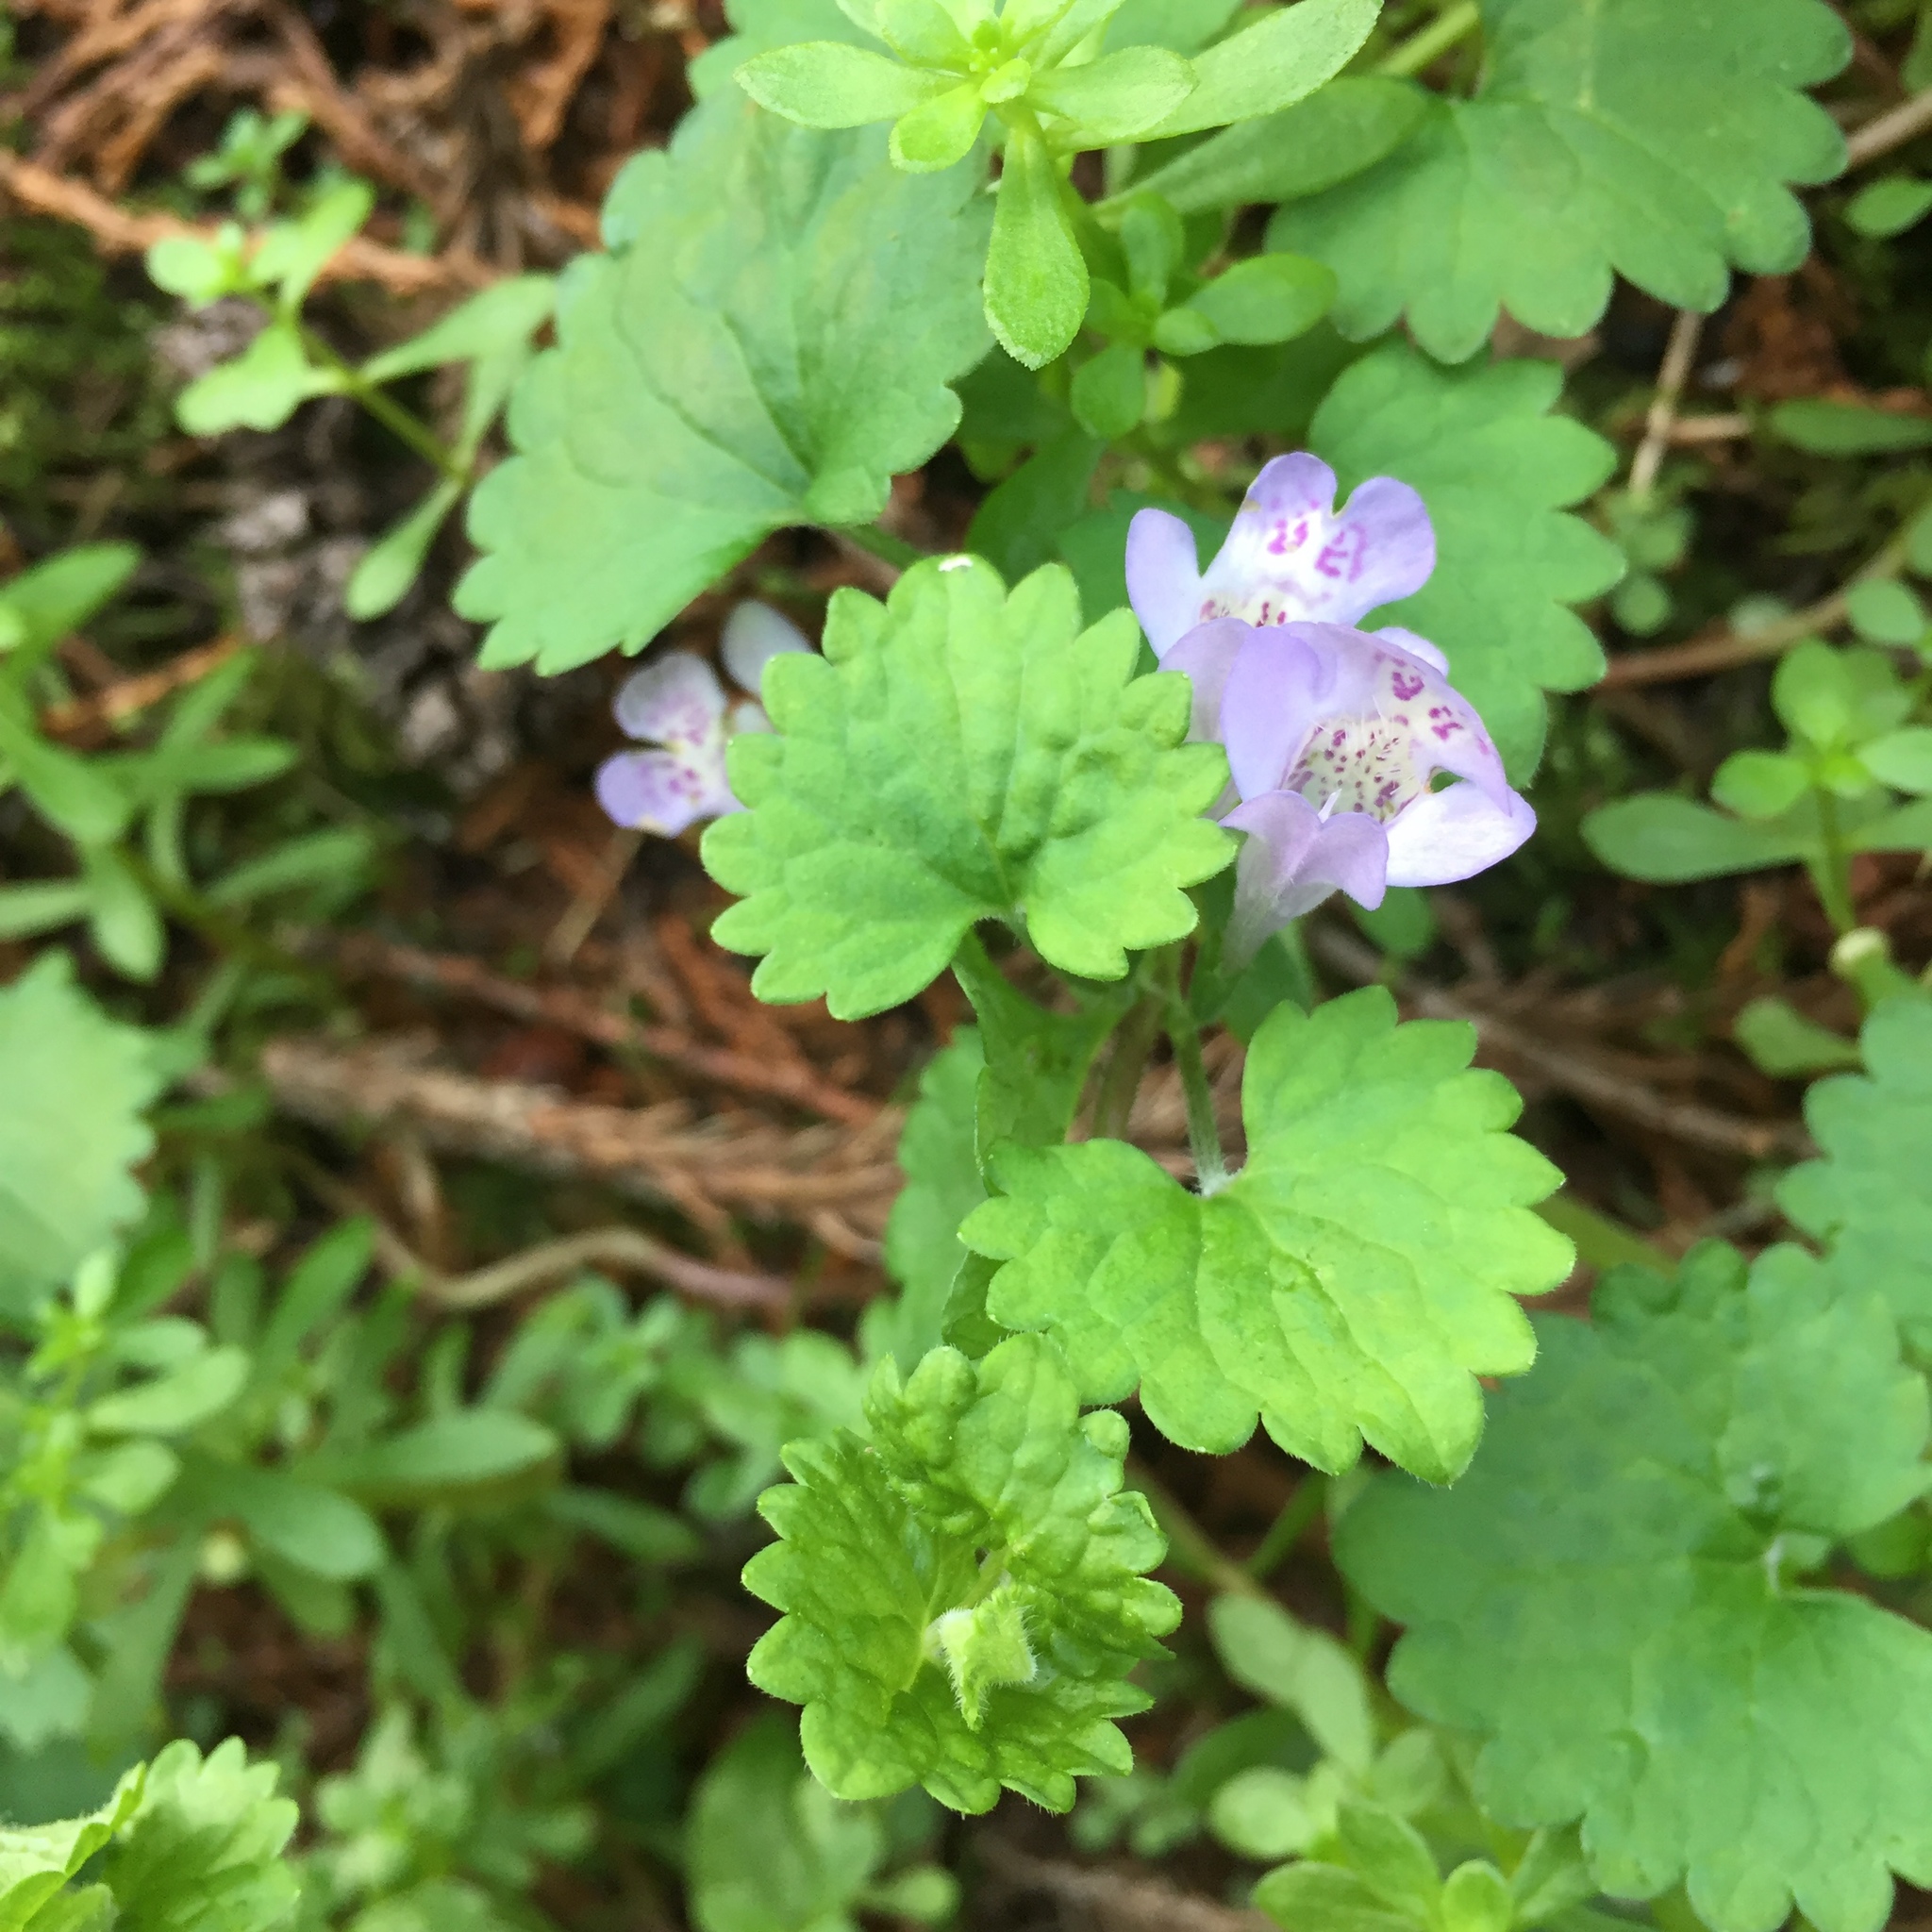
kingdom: Plantae
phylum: Tracheophyta
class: Magnoliopsida
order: Lamiales
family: Lamiaceae
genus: Glechoma
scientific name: Glechoma grandis
